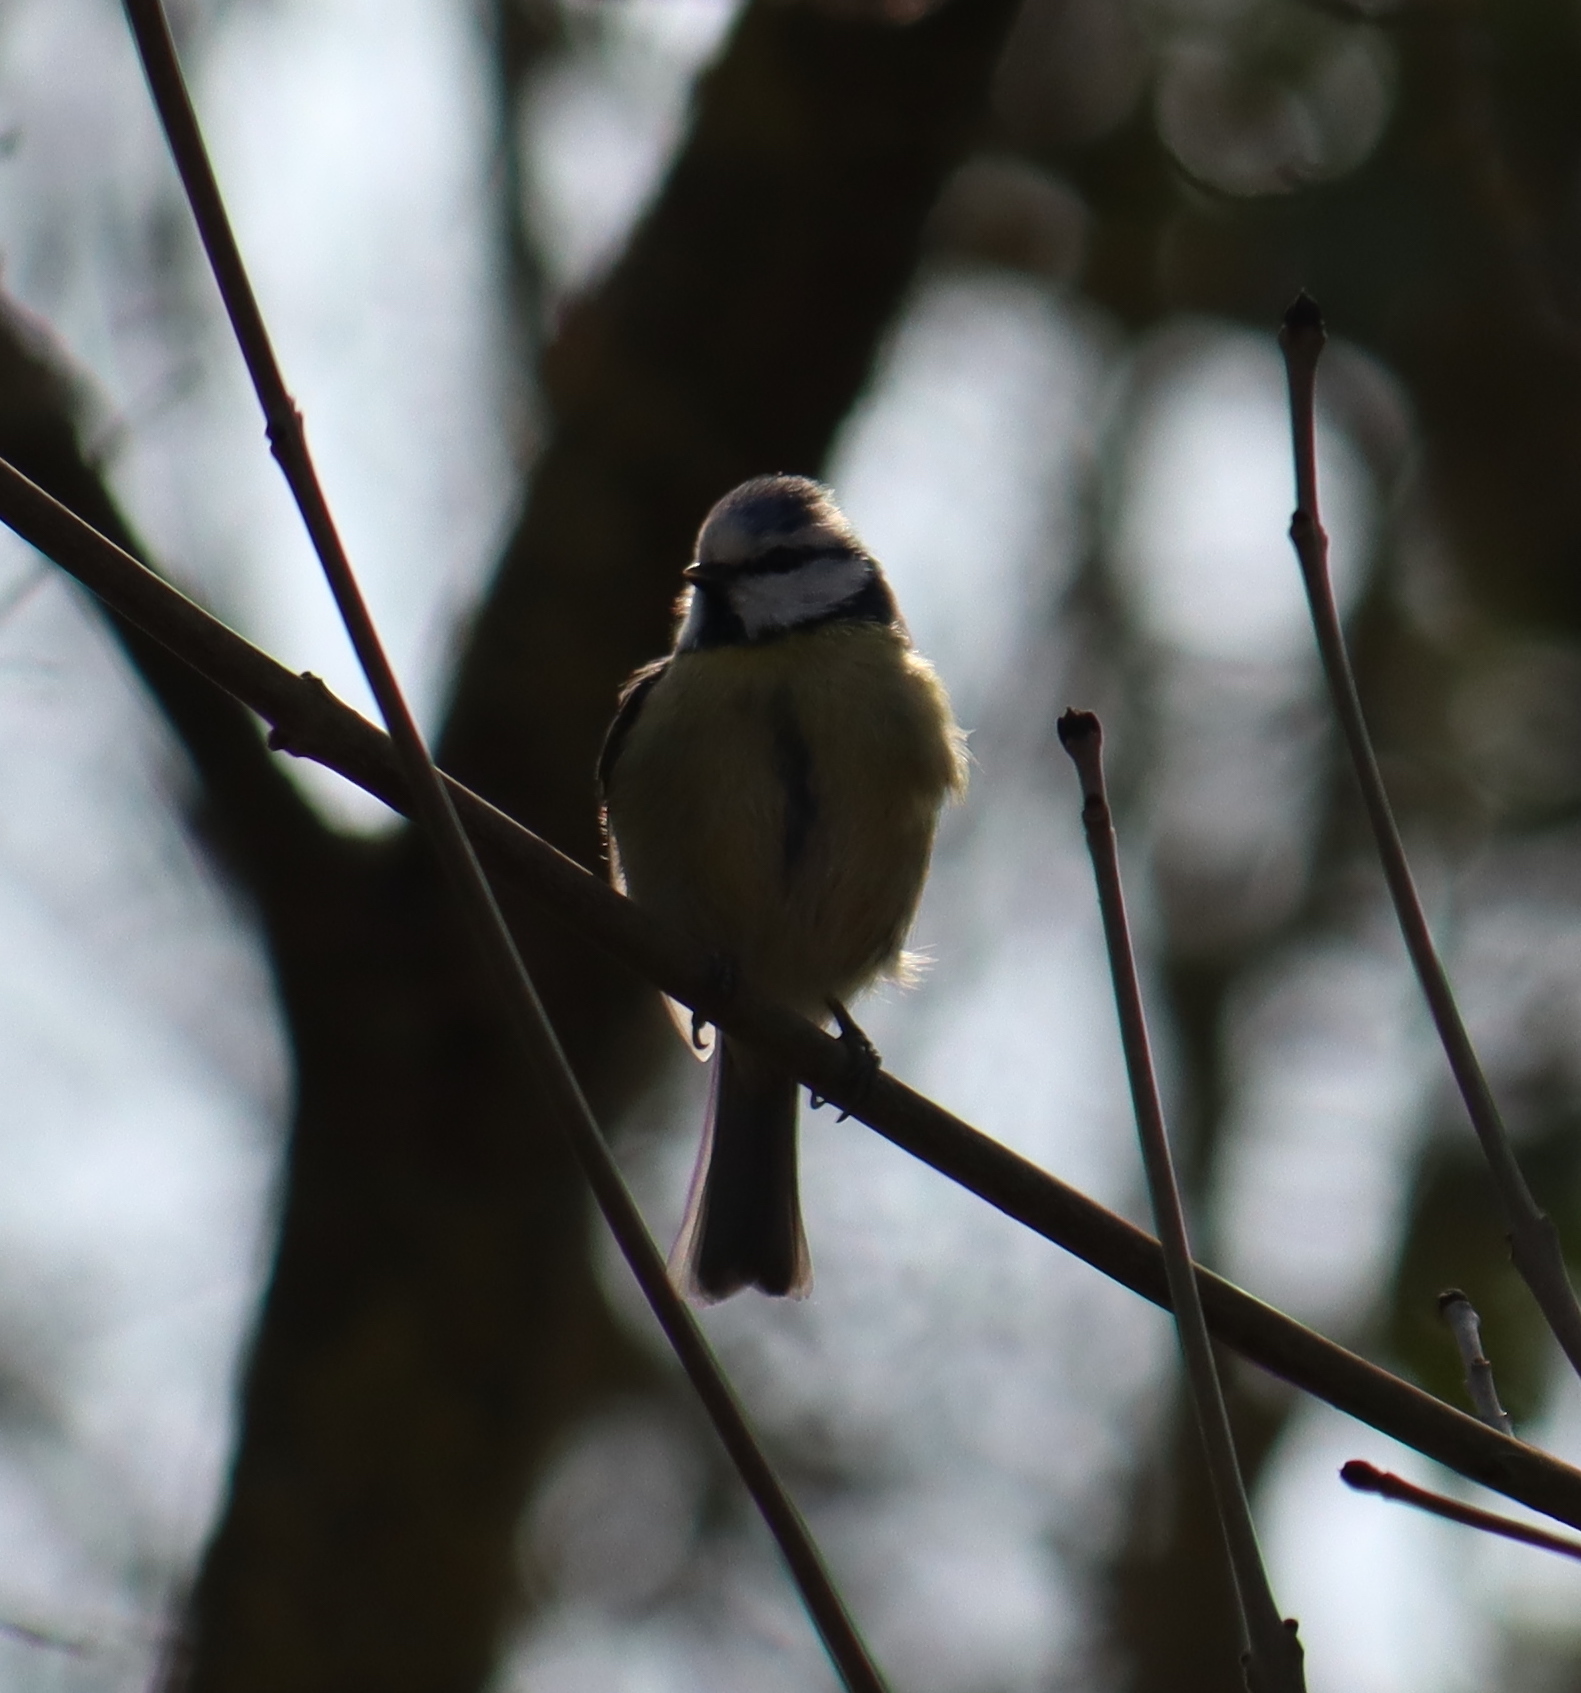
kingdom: Animalia
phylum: Chordata
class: Aves
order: Passeriformes
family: Paridae
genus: Cyanistes
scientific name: Cyanistes caeruleus
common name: Eurasian blue tit
